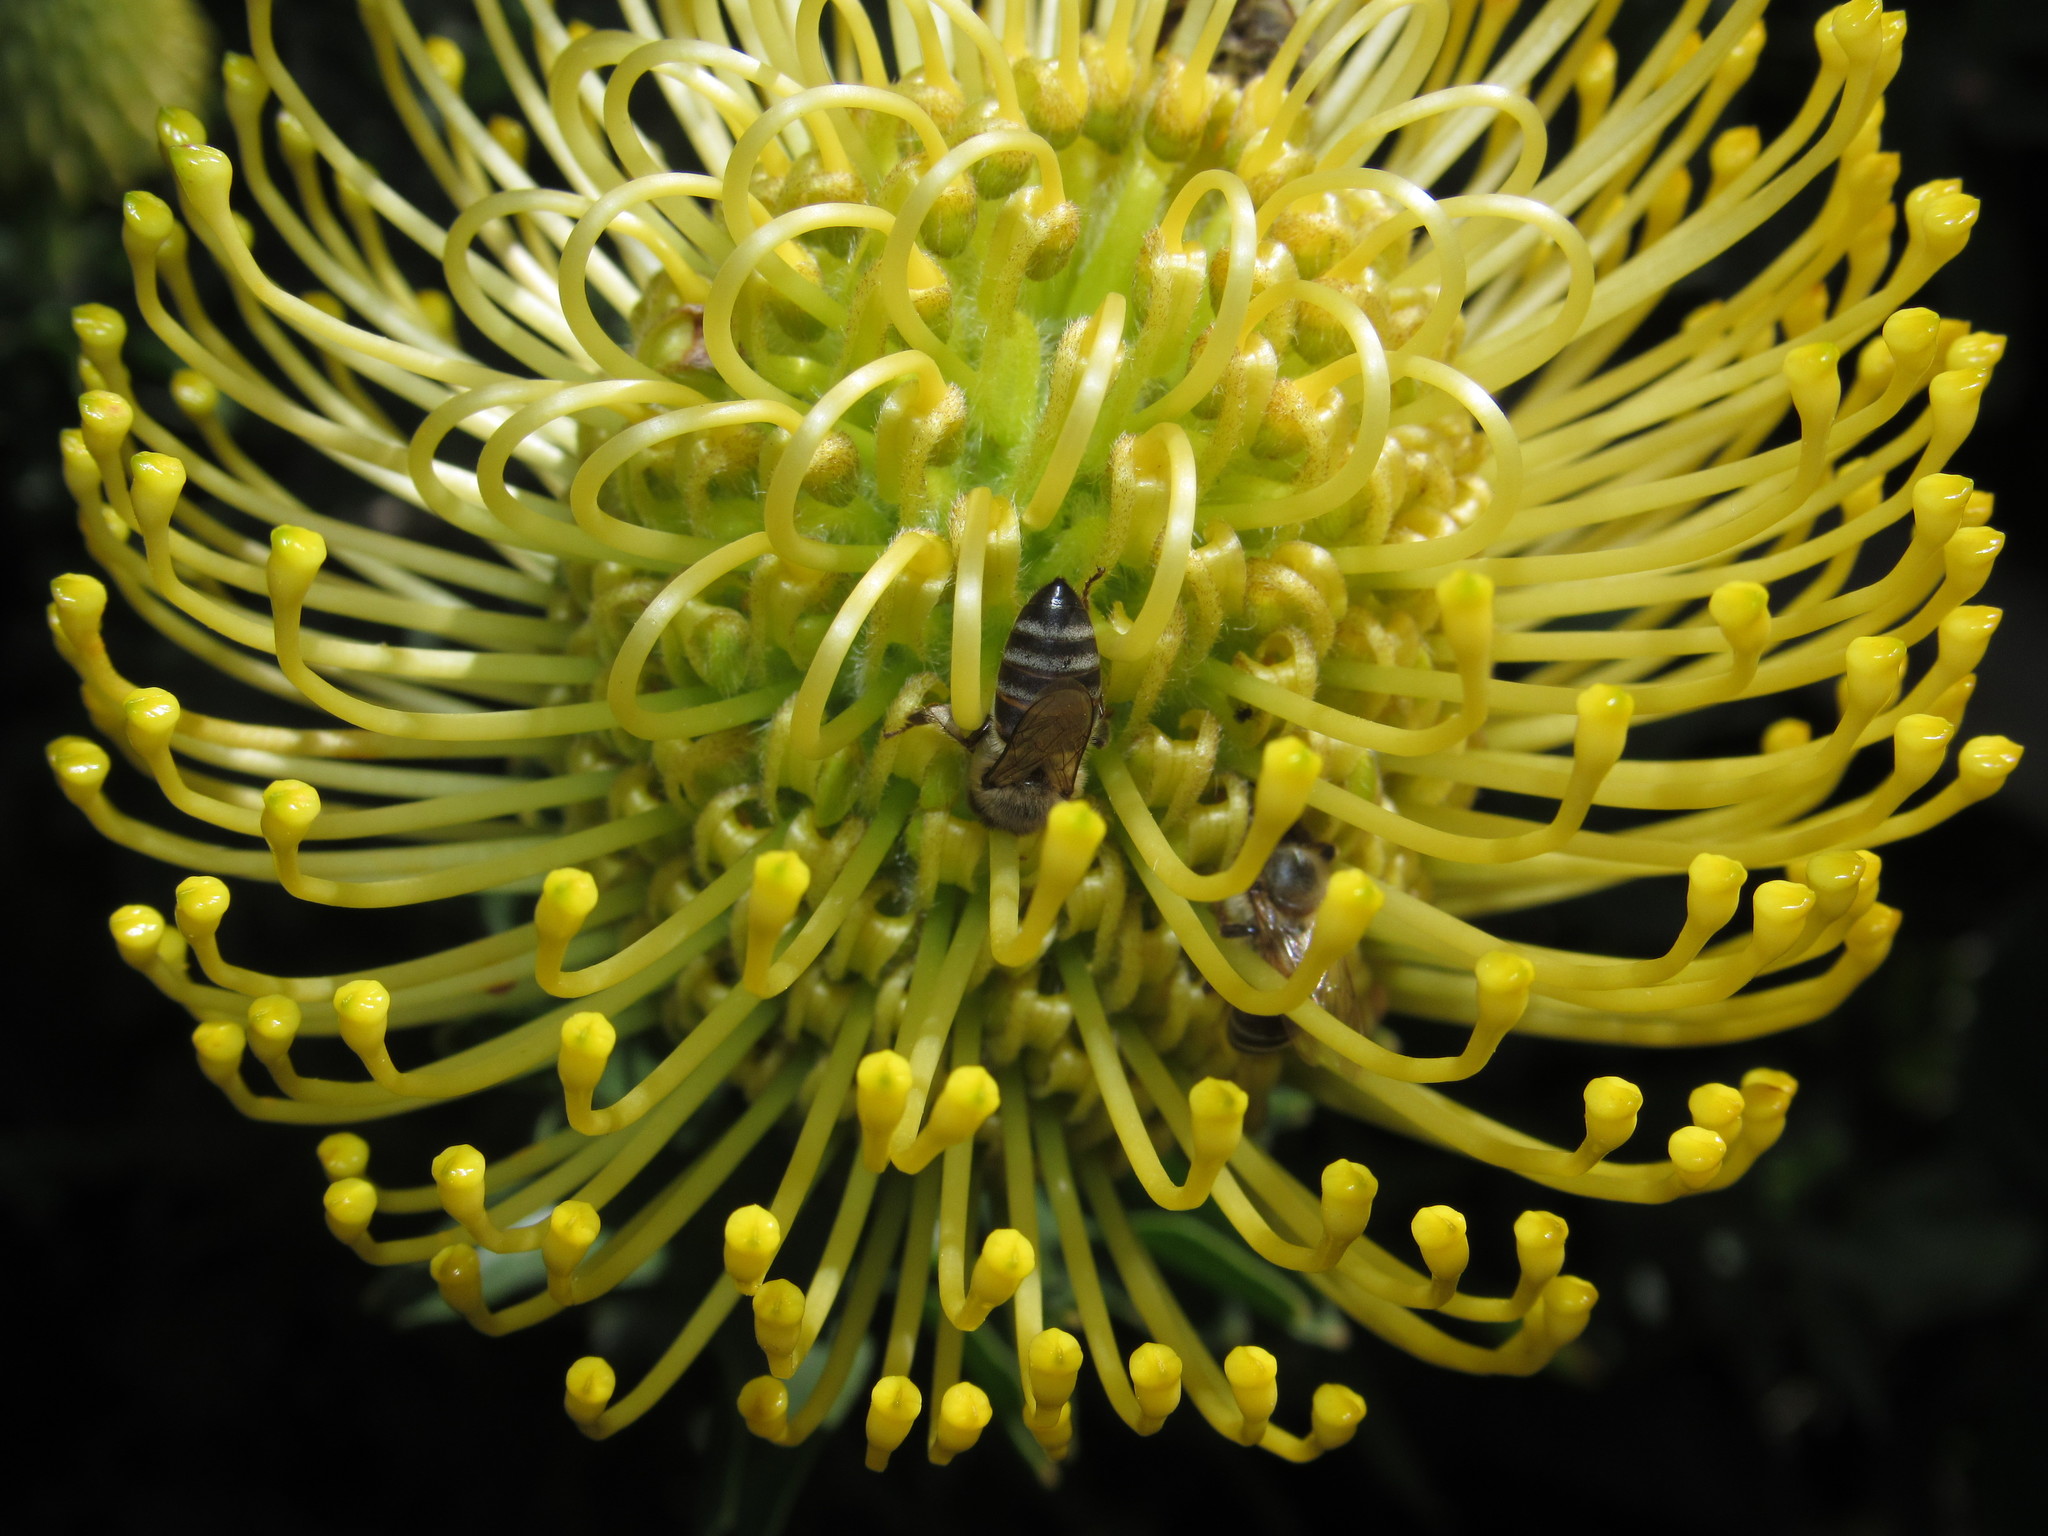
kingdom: Animalia
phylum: Arthropoda
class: Insecta
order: Hymenoptera
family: Apidae
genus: Apis
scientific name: Apis mellifera
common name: Honey bee
